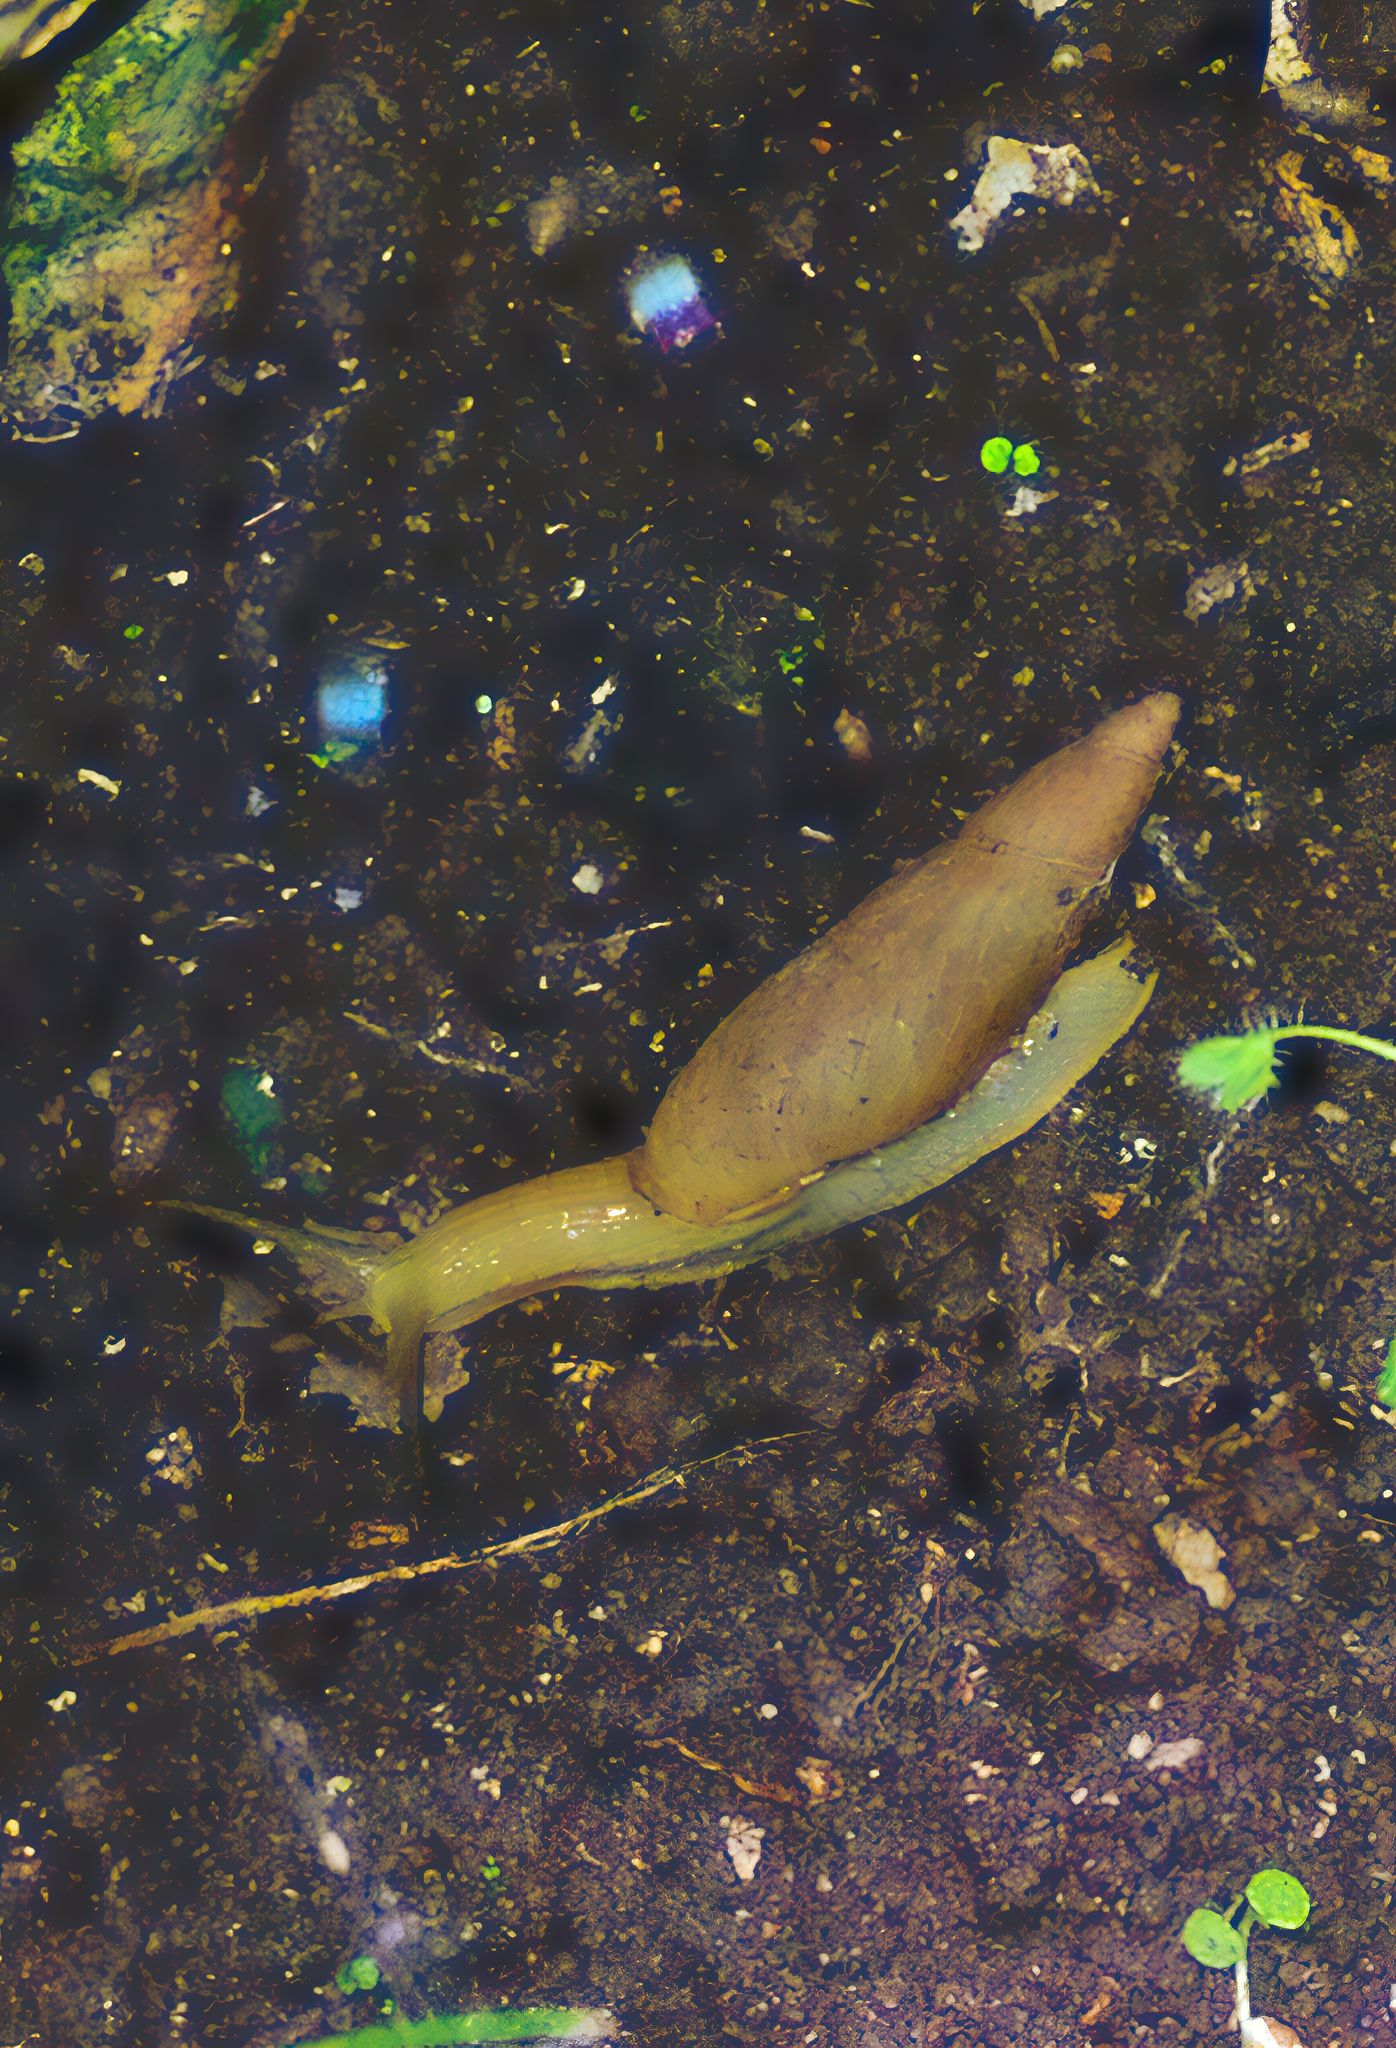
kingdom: Animalia
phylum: Mollusca
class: Gastropoda
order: Stylommatophora
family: Spiraxidae
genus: Poiretia
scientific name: Poiretia compressa
